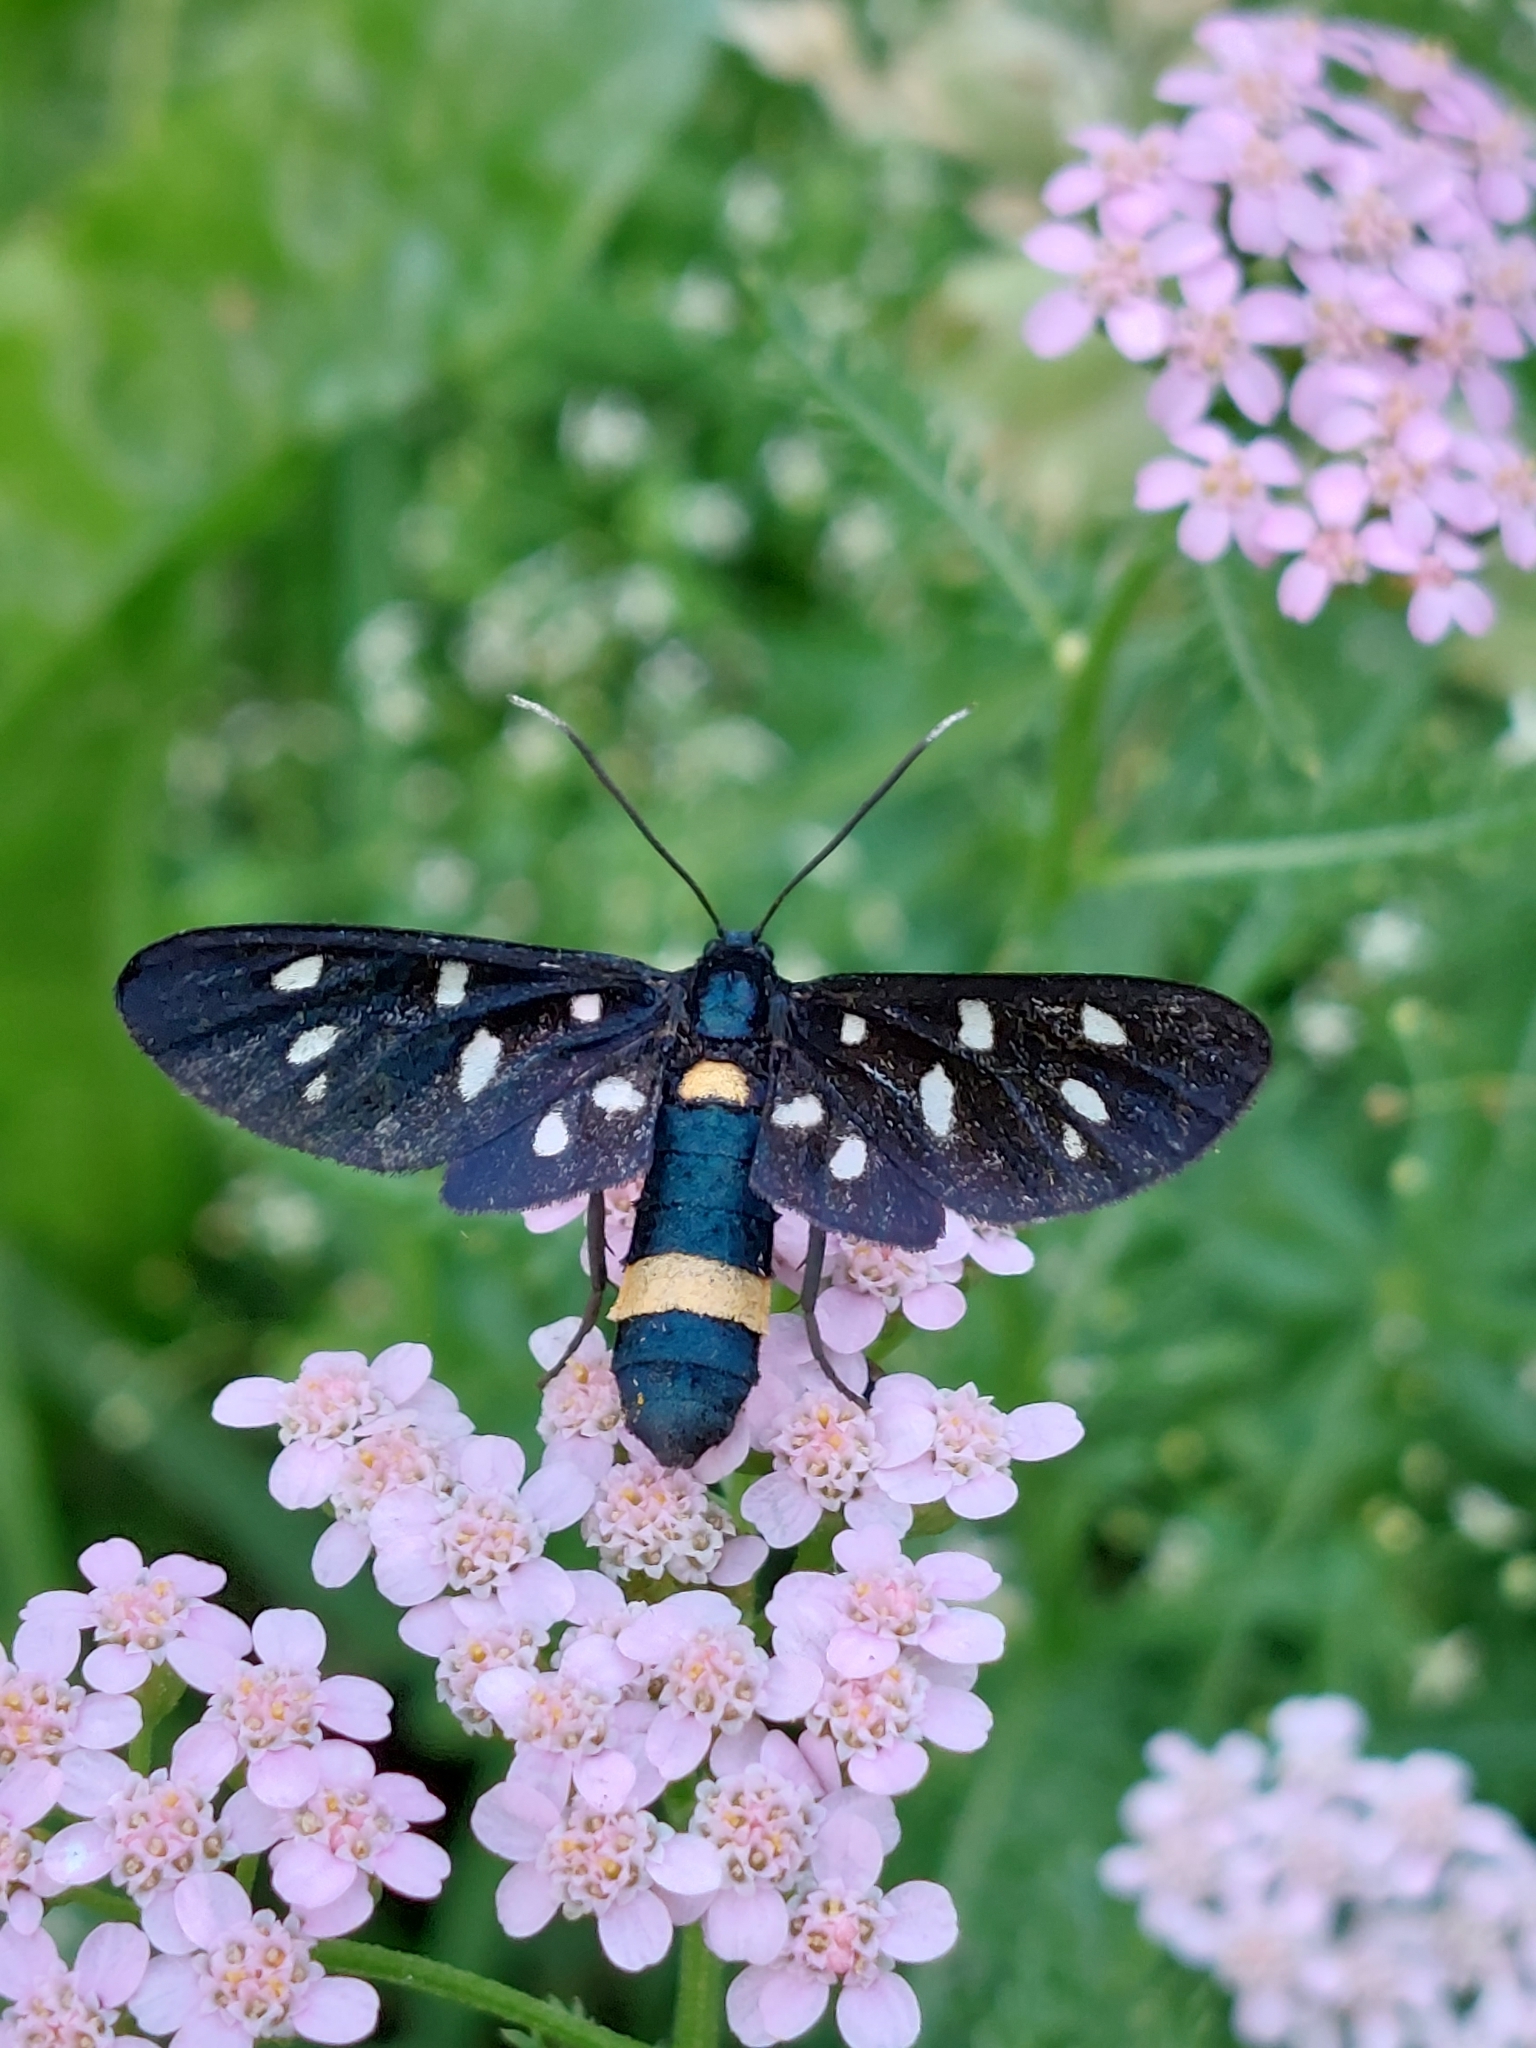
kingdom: Animalia
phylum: Arthropoda
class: Insecta
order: Lepidoptera
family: Erebidae
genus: Amata
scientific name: Amata phegea
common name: Nine-spotted
